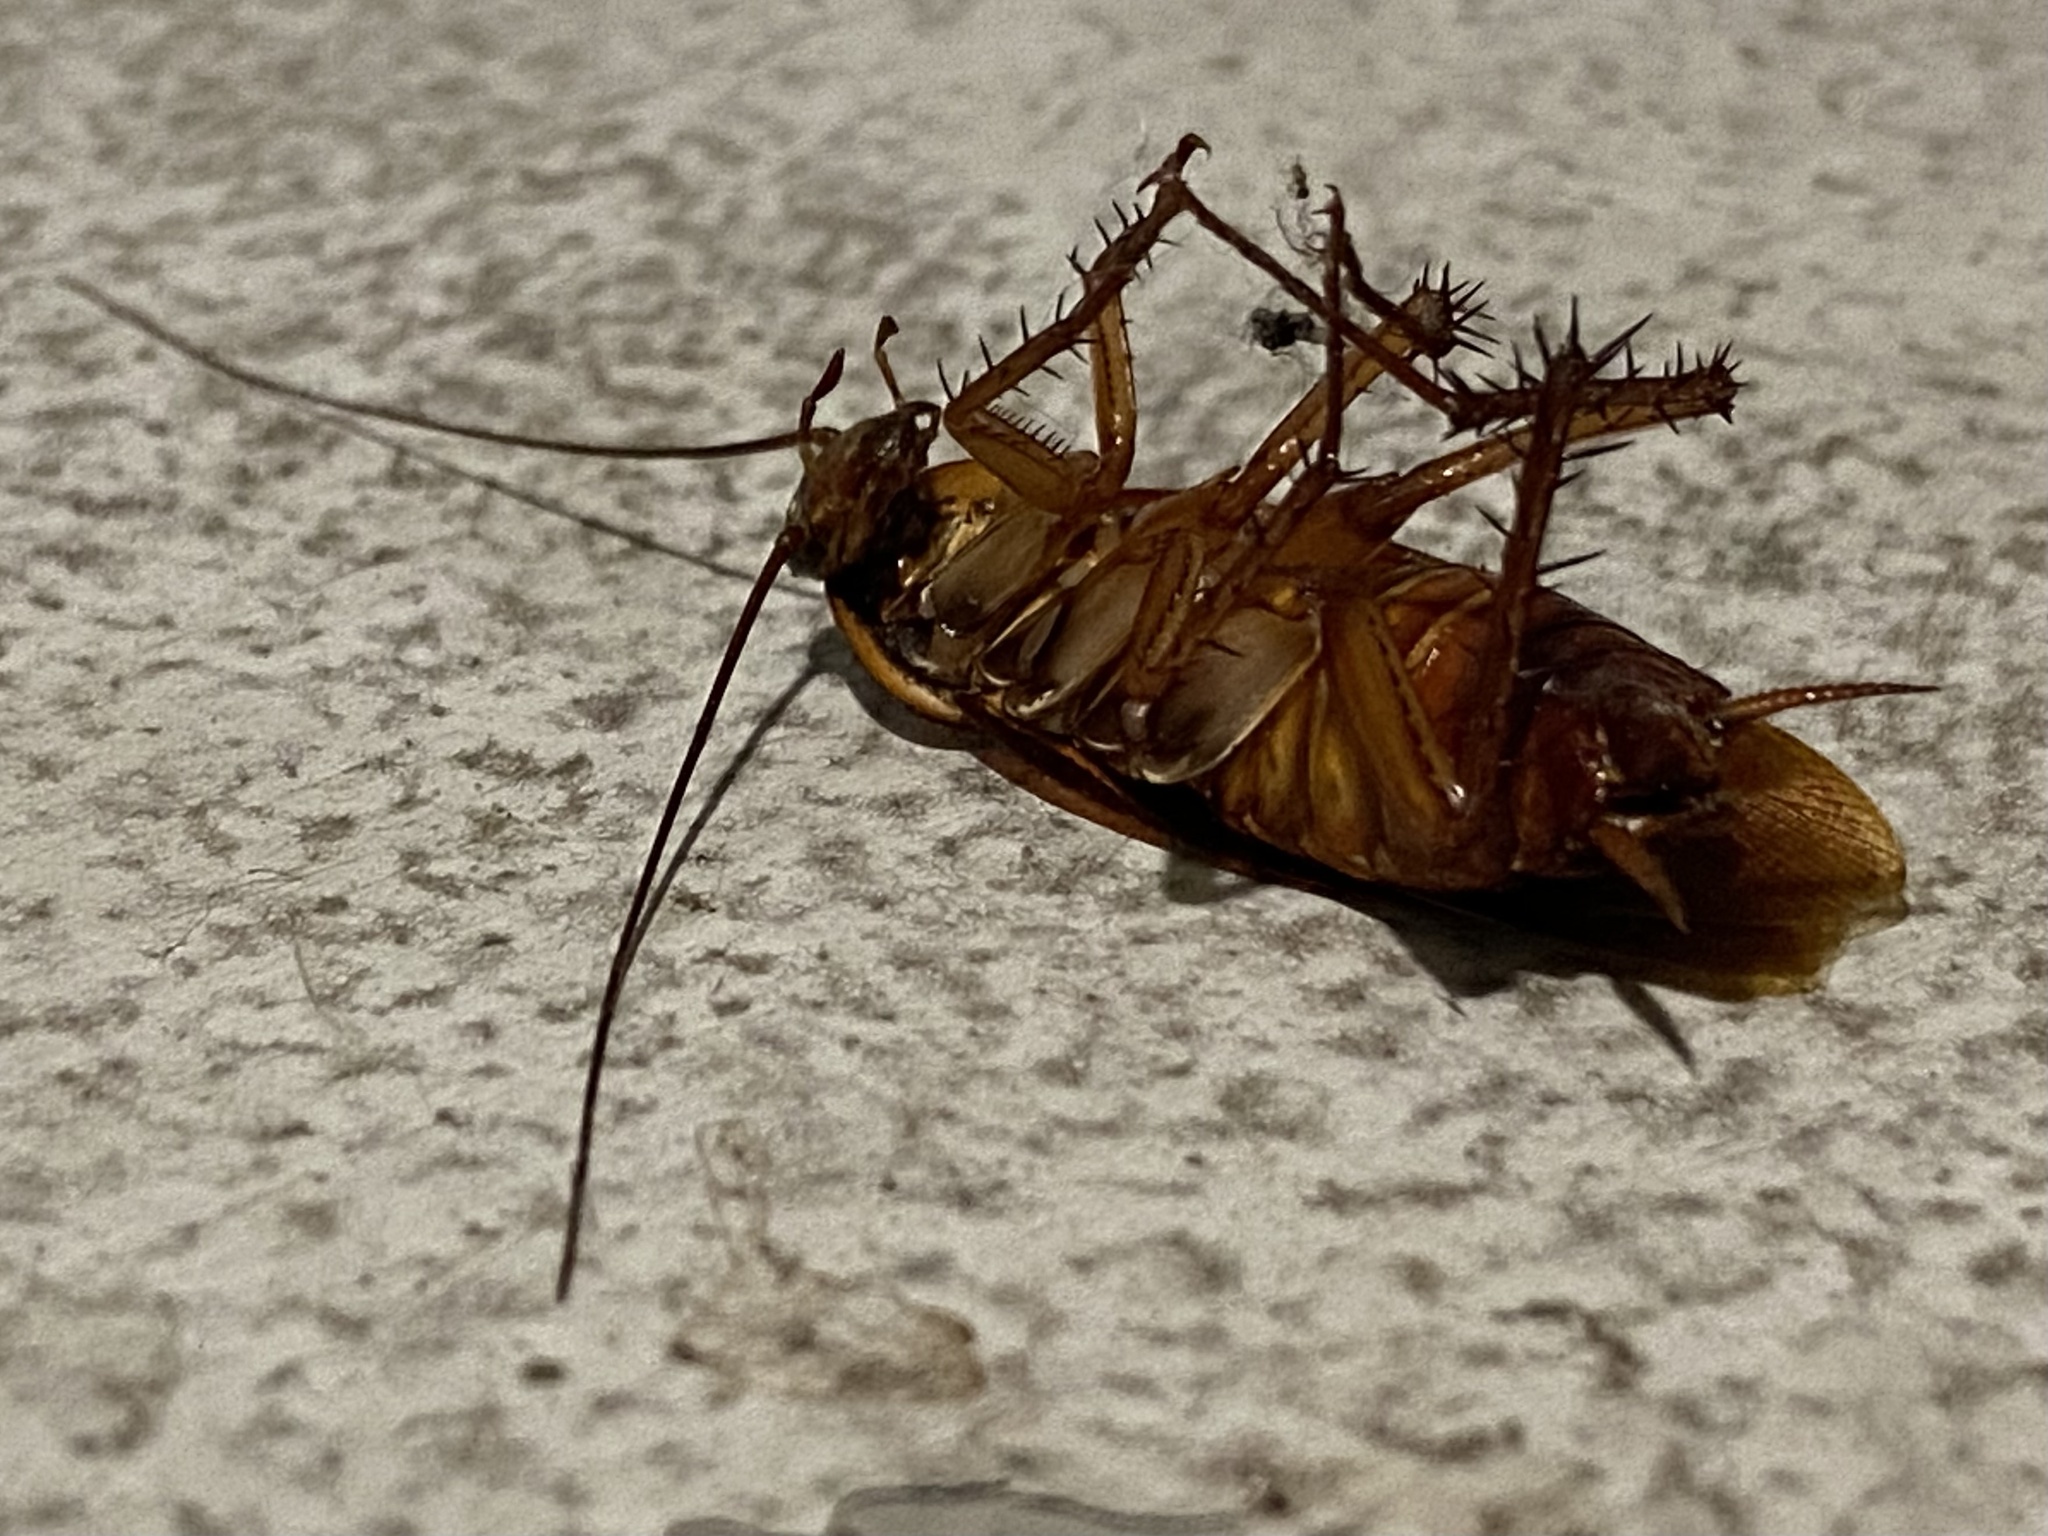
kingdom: Animalia
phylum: Arthropoda
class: Insecta
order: Blattodea
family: Blattidae
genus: Periplaneta
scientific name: Periplaneta americana
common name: American cockroach
